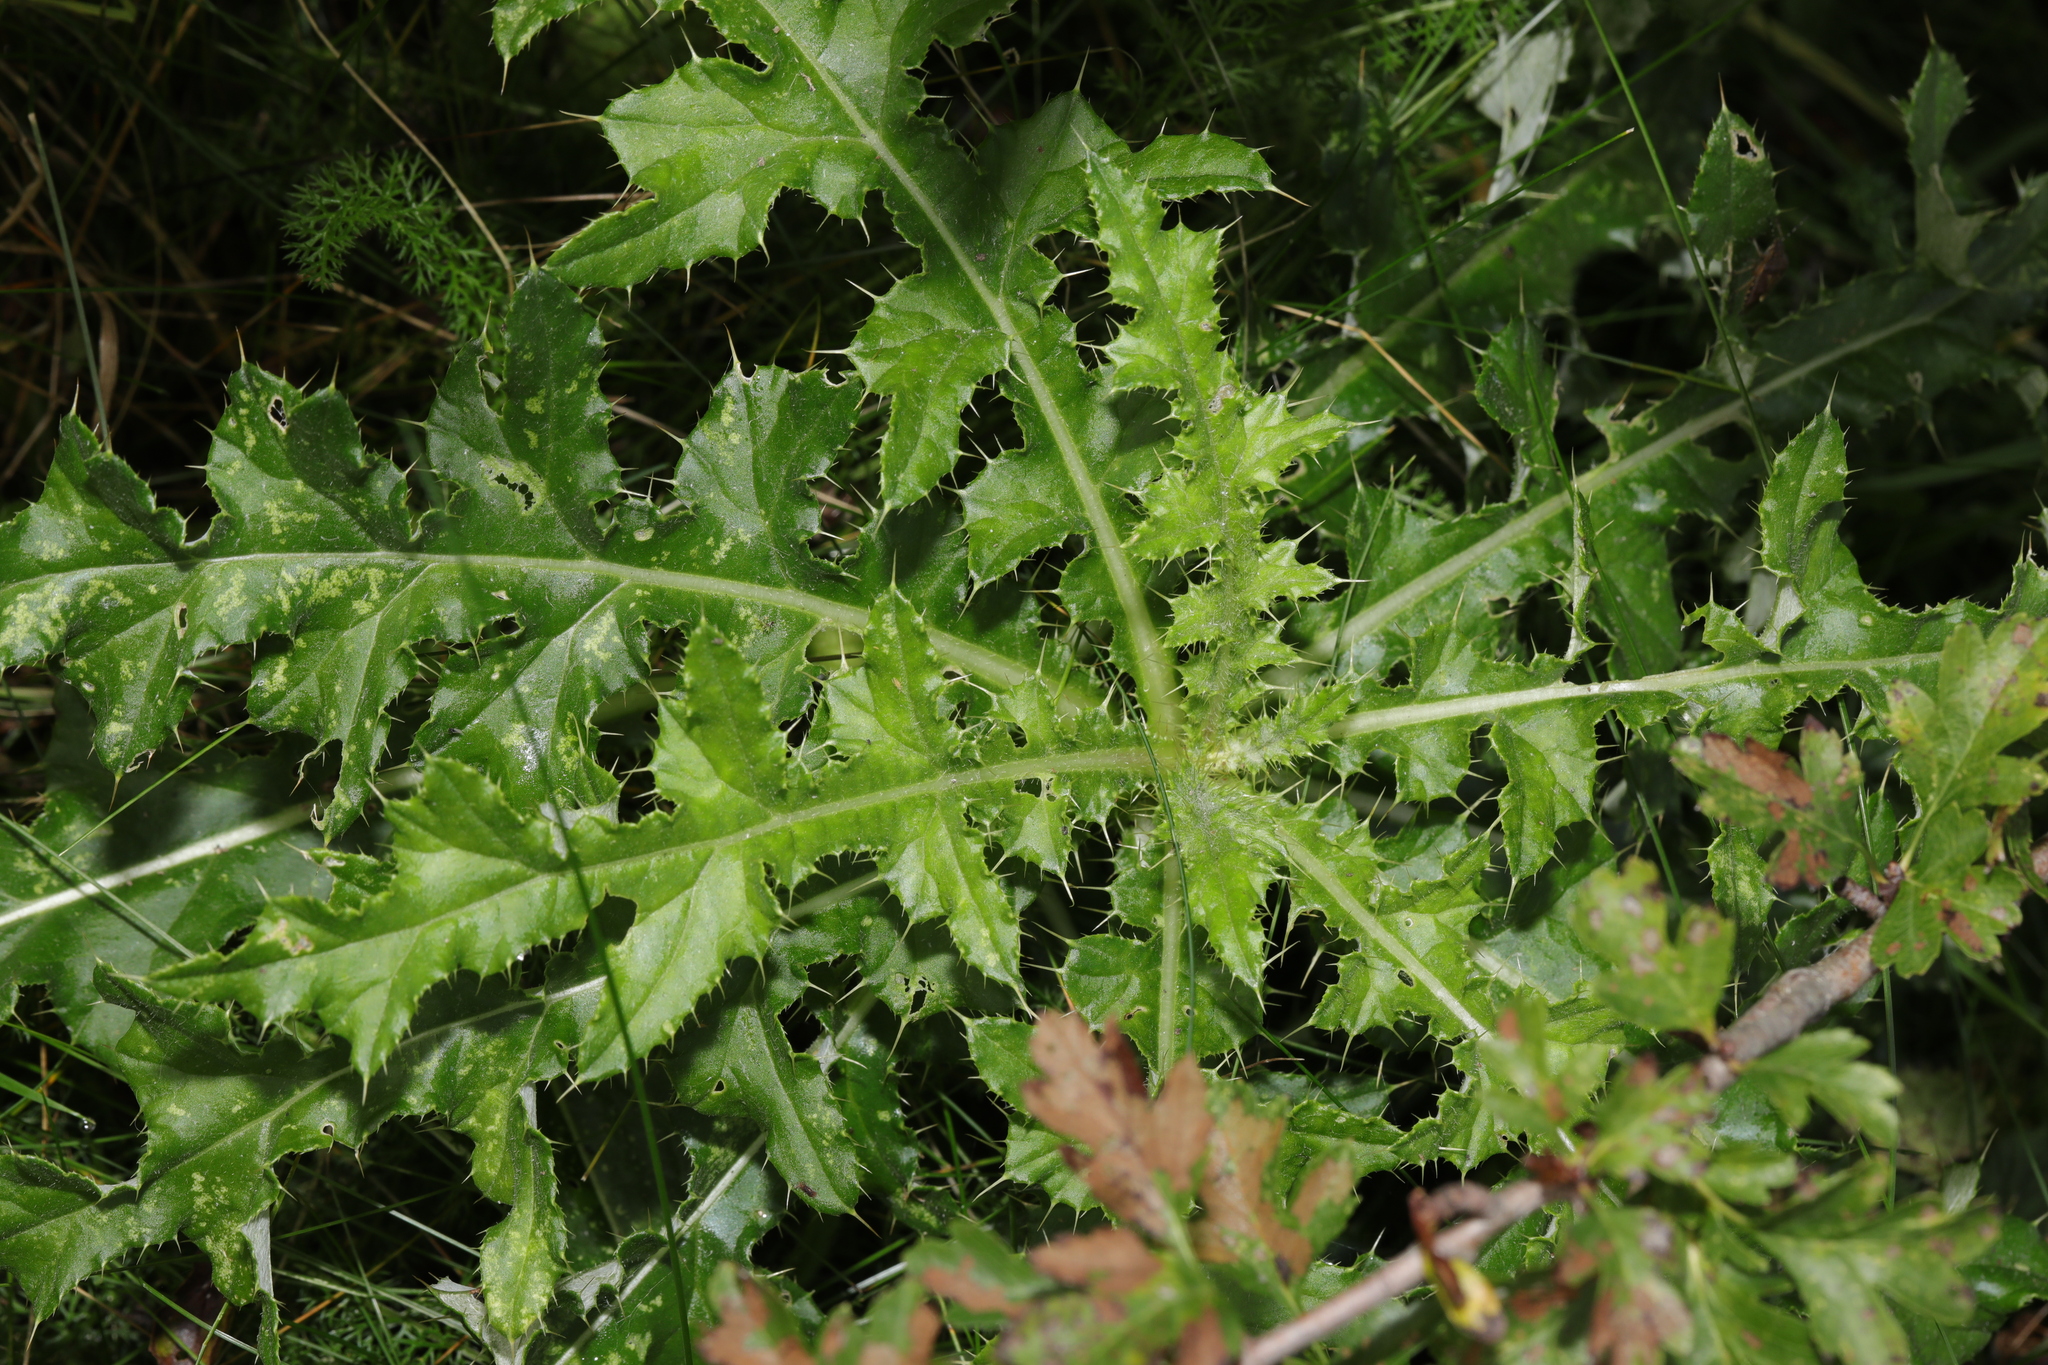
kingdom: Plantae
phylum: Tracheophyta
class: Magnoliopsida
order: Asterales
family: Asteraceae
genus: Cirsium
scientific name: Cirsium arvense
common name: Creeping thistle
